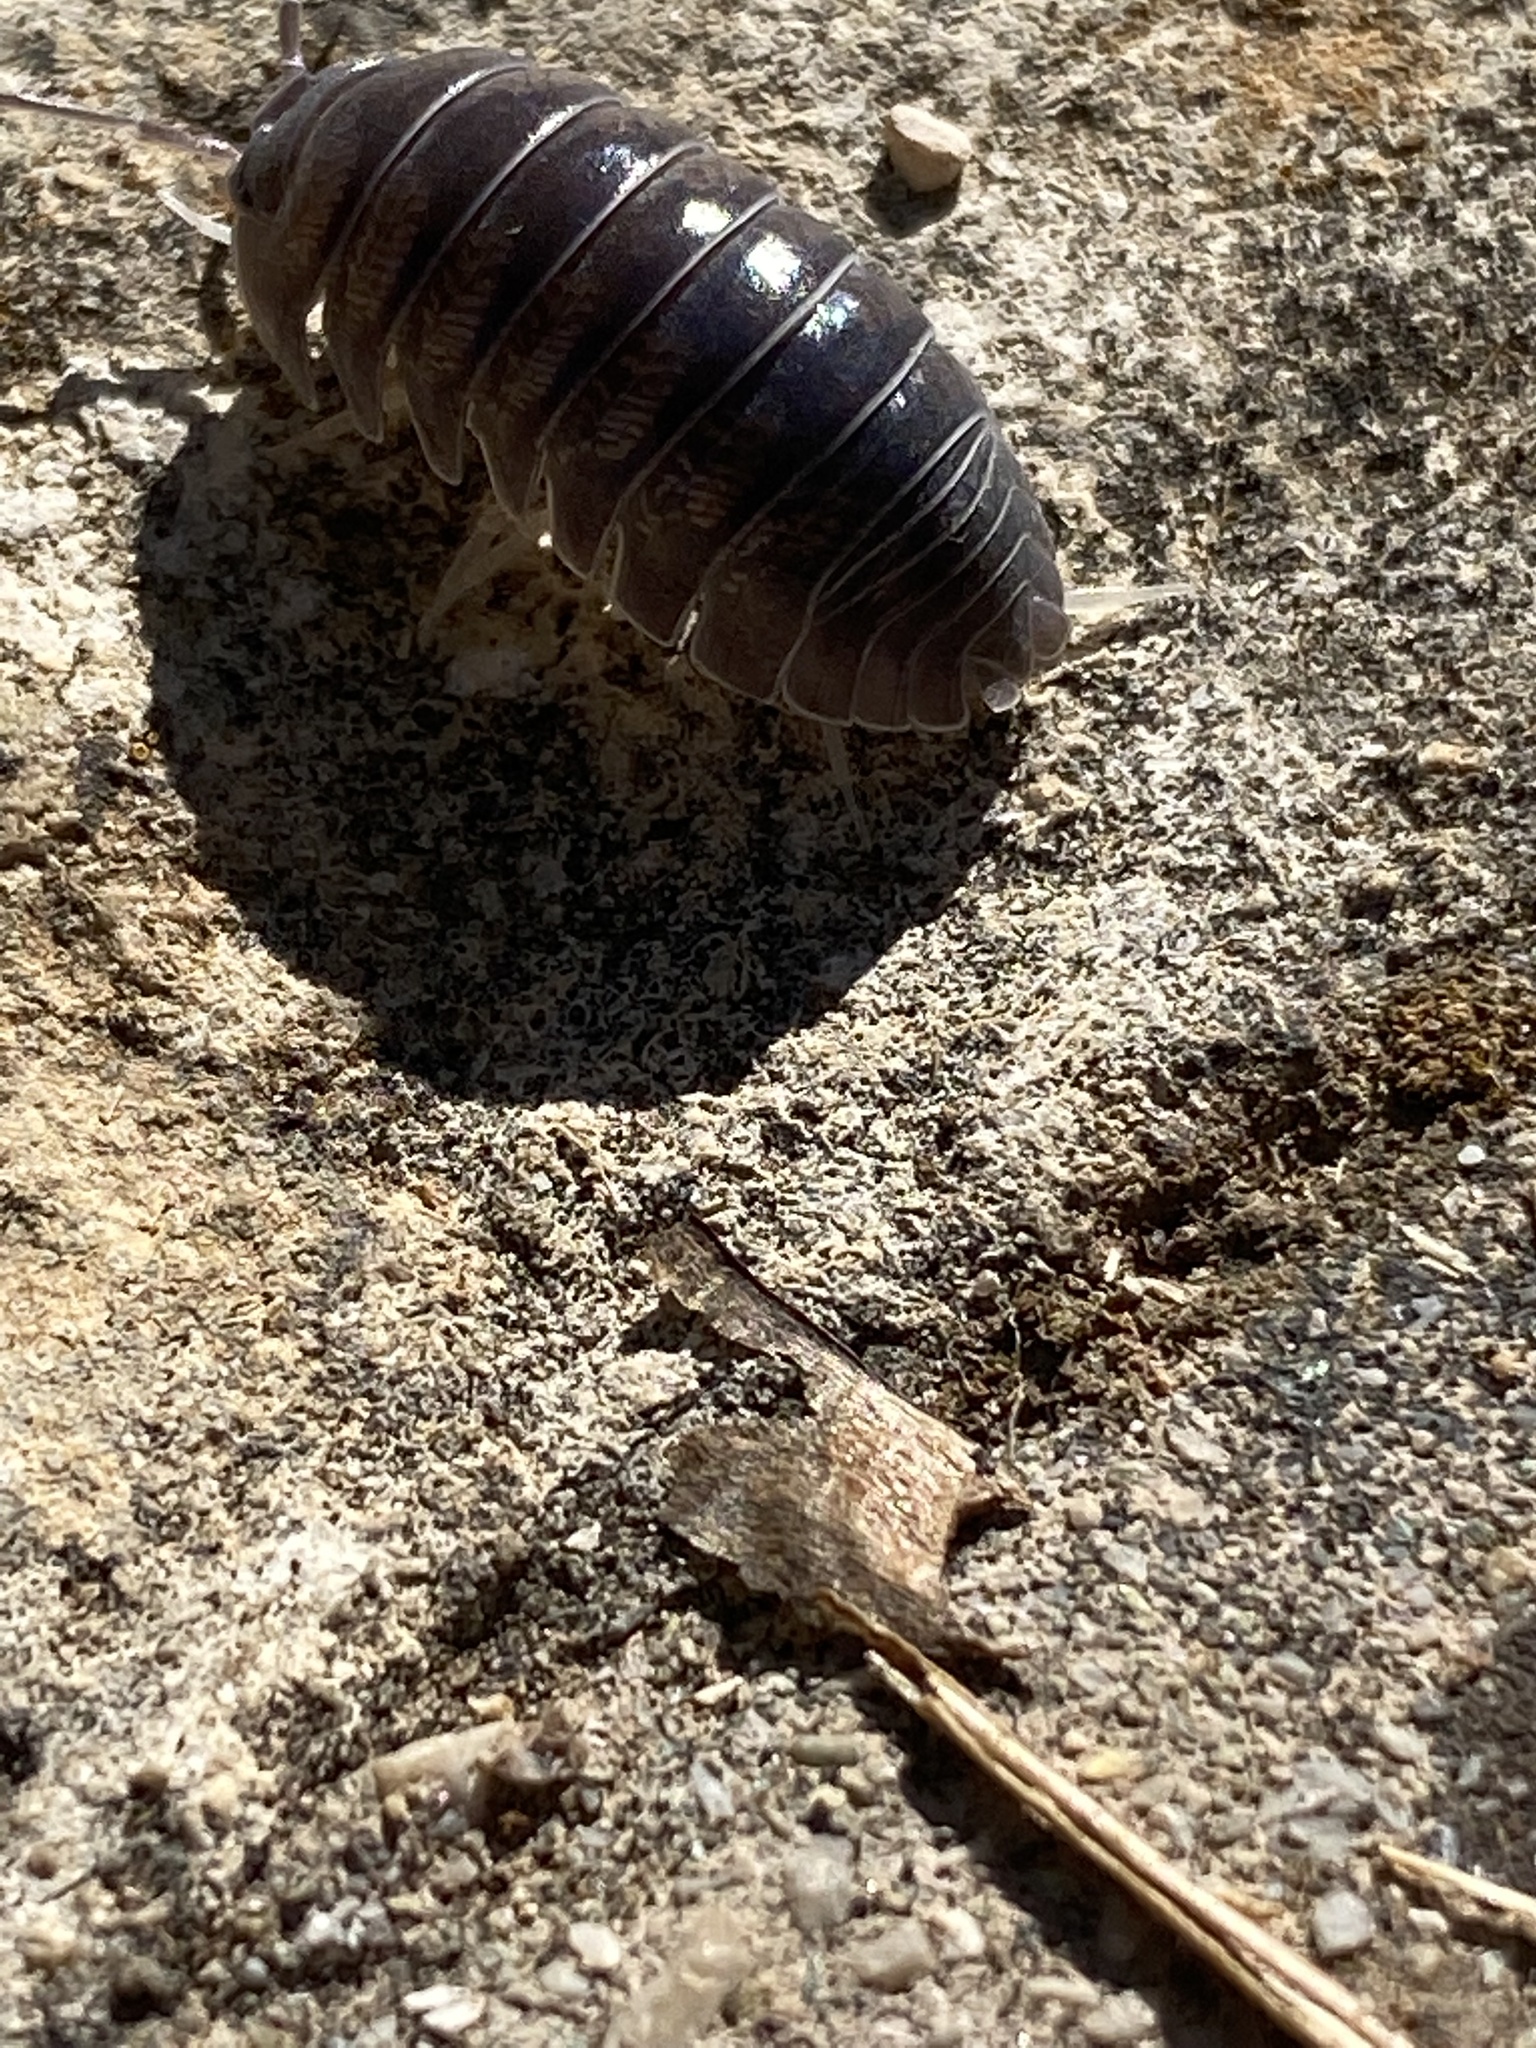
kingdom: Animalia
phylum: Arthropoda
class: Malacostraca
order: Isopoda
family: Armadillidiidae
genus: Armadillidium
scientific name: Armadillidium argolicum
